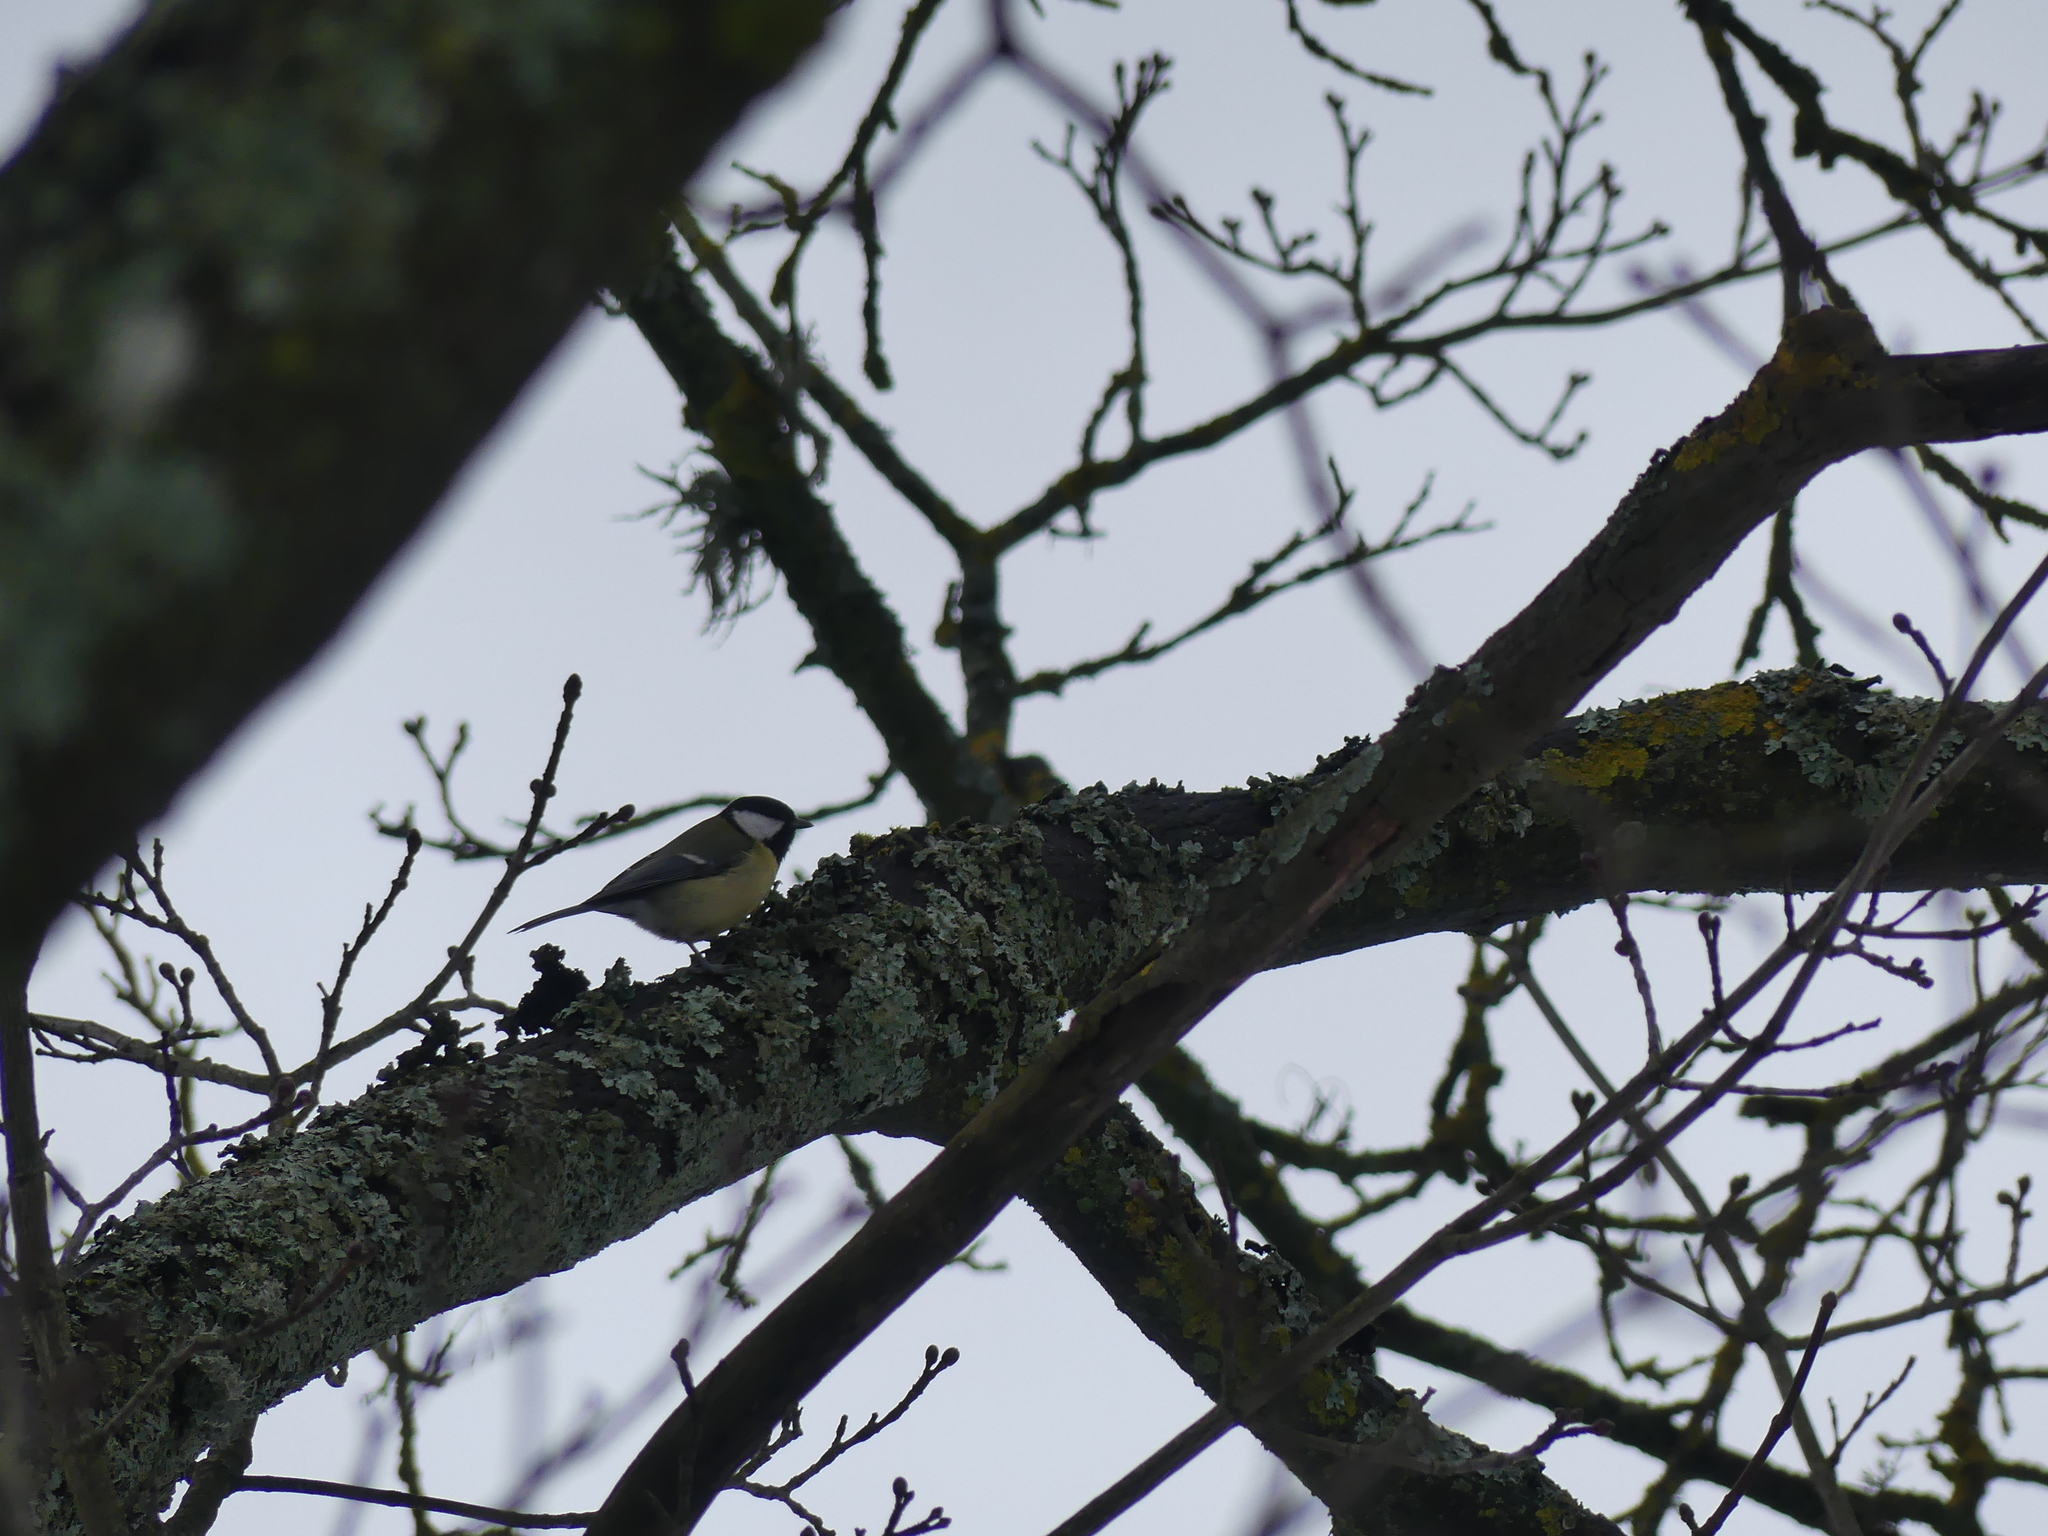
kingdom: Animalia
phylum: Chordata
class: Aves
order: Passeriformes
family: Paridae
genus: Parus
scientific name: Parus major
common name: Great tit
